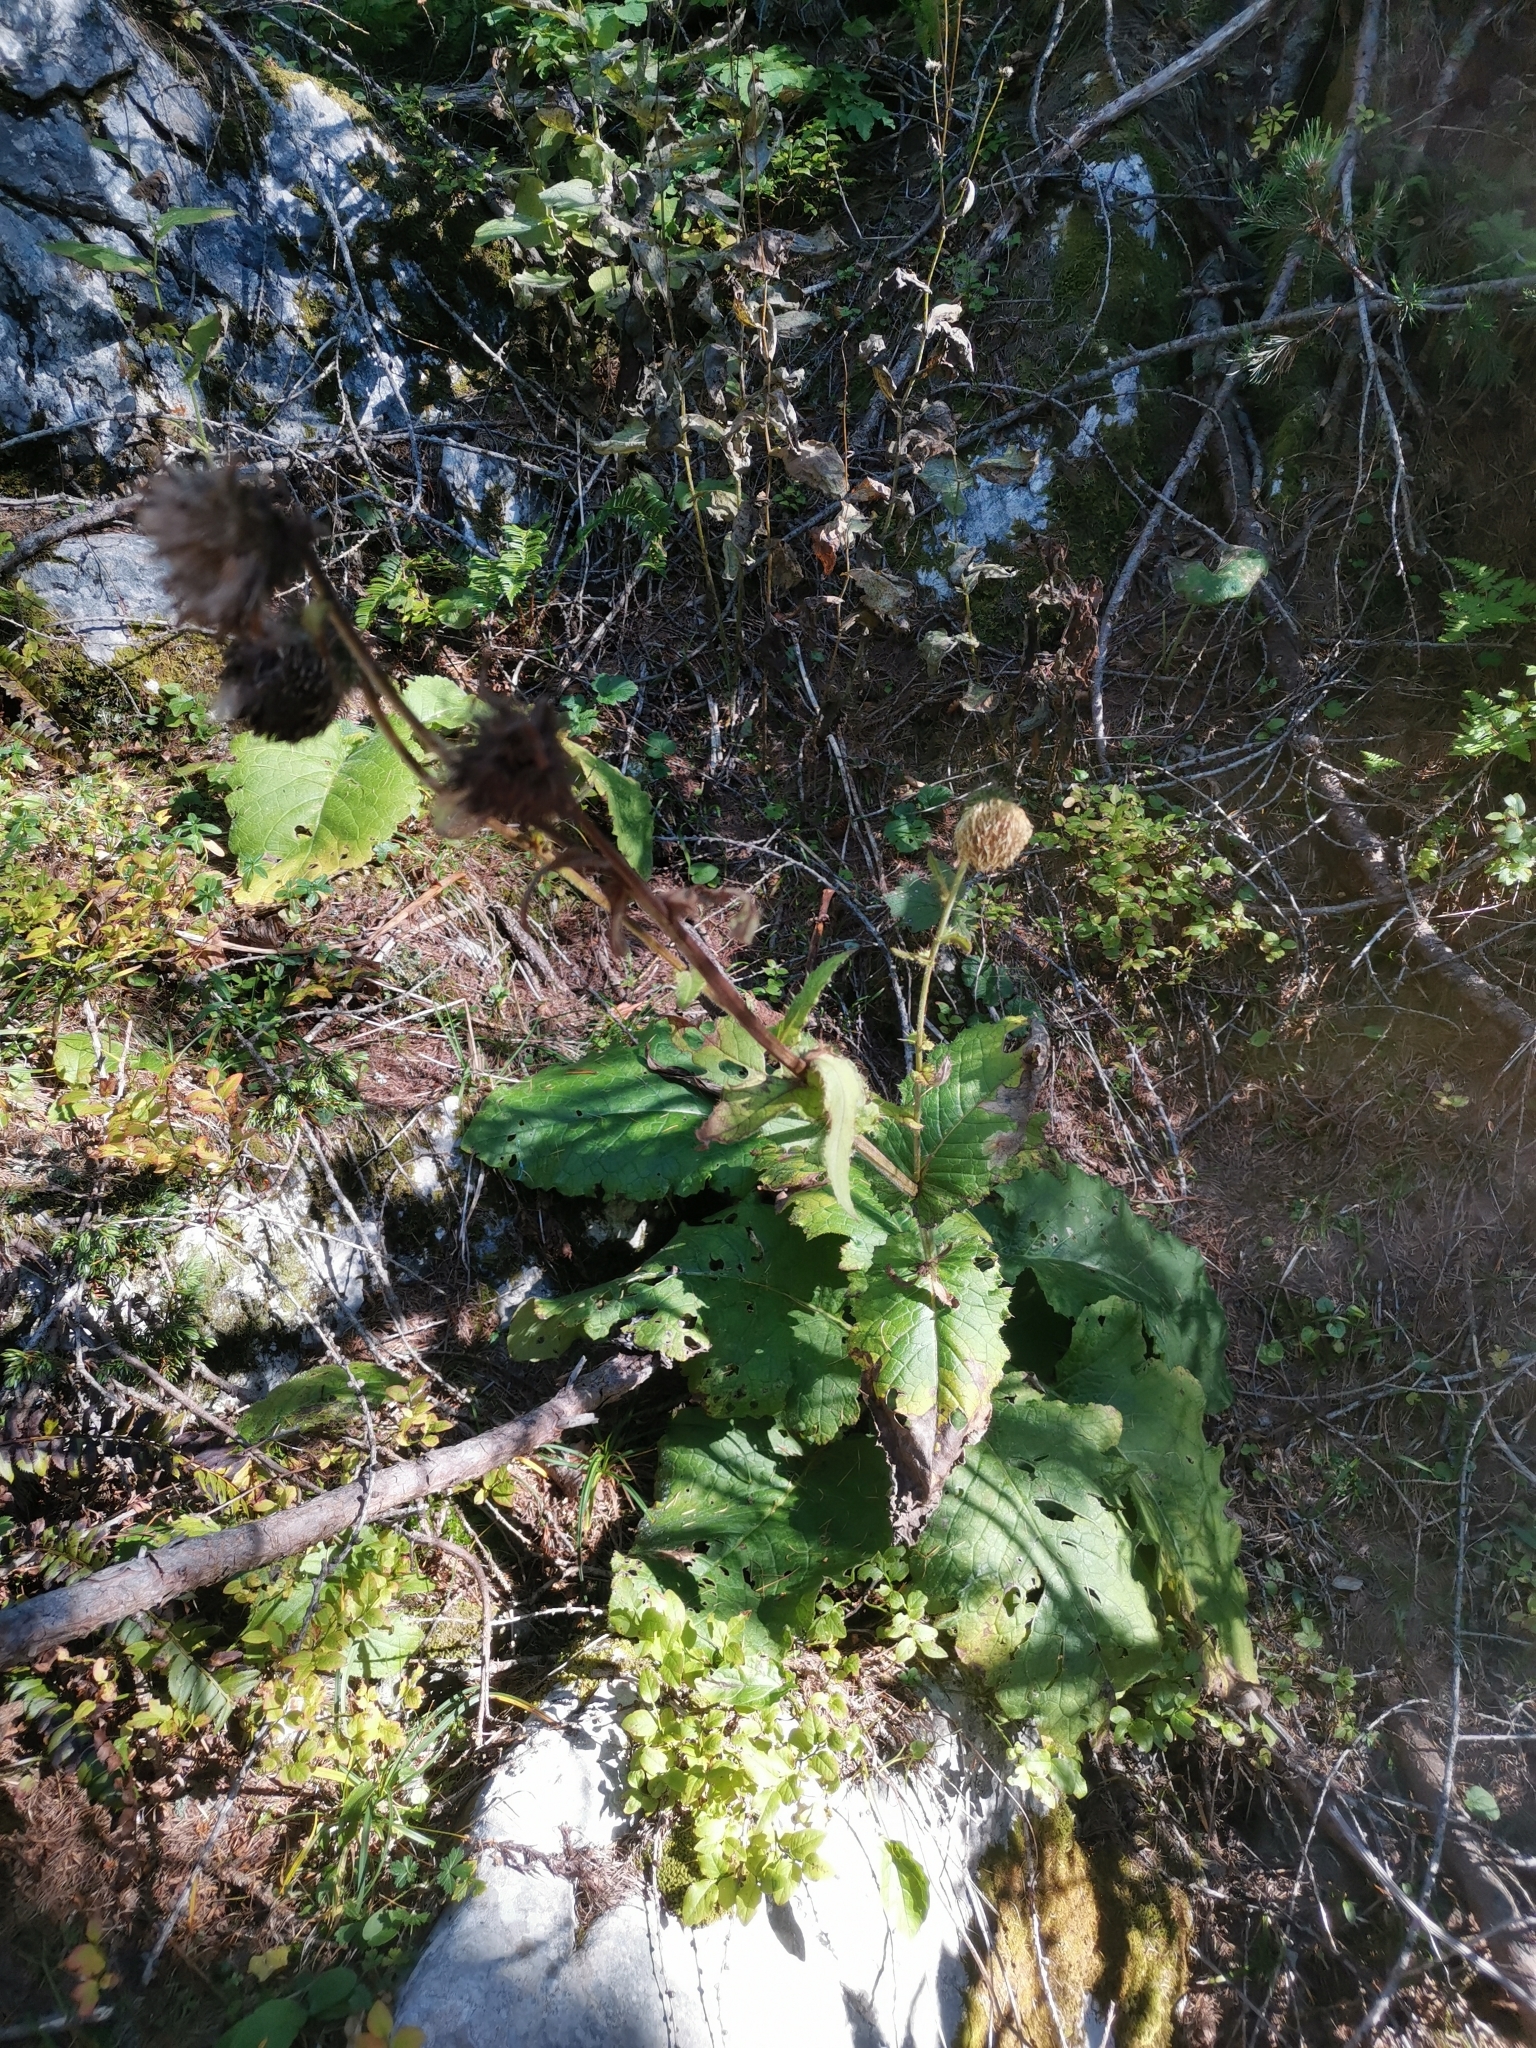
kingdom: Plantae
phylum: Tracheophyta
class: Magnoliopsida
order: Asterales
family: Asteraceae
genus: Cirsium
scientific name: Cirsium carniolicum
